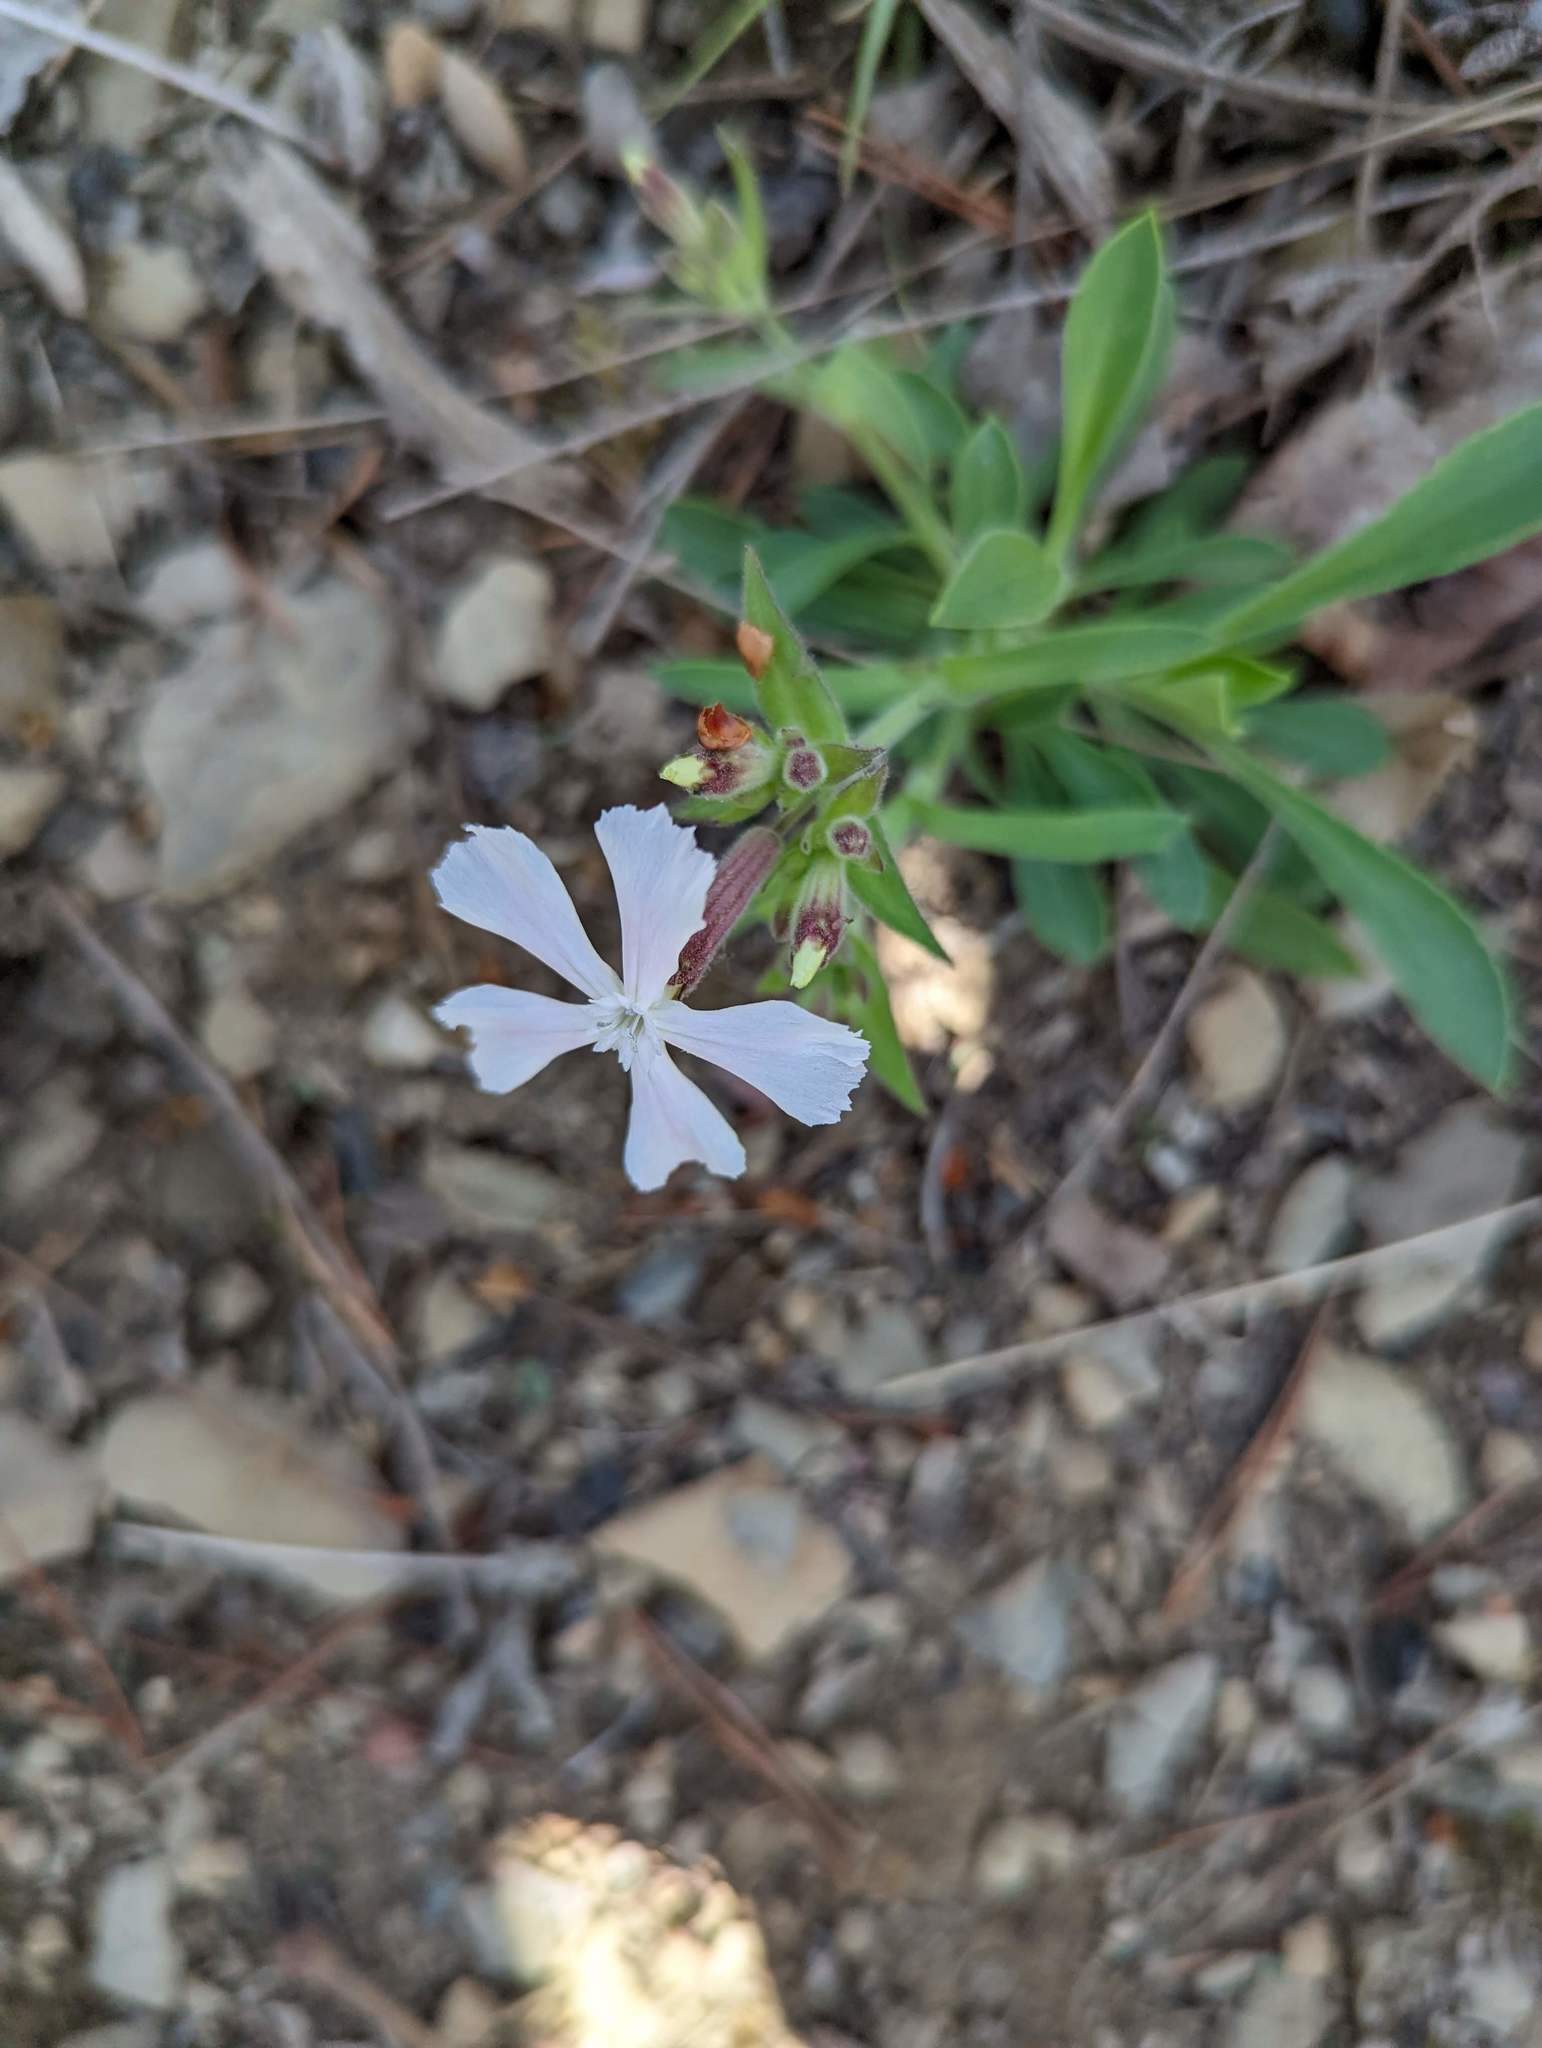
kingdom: Plantae
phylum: Tracheophyta
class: Magnoliopsida
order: Caryophyllales
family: Caryophyllaceae
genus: Silene
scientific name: Silene caroliniana
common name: Sticky catchfly
